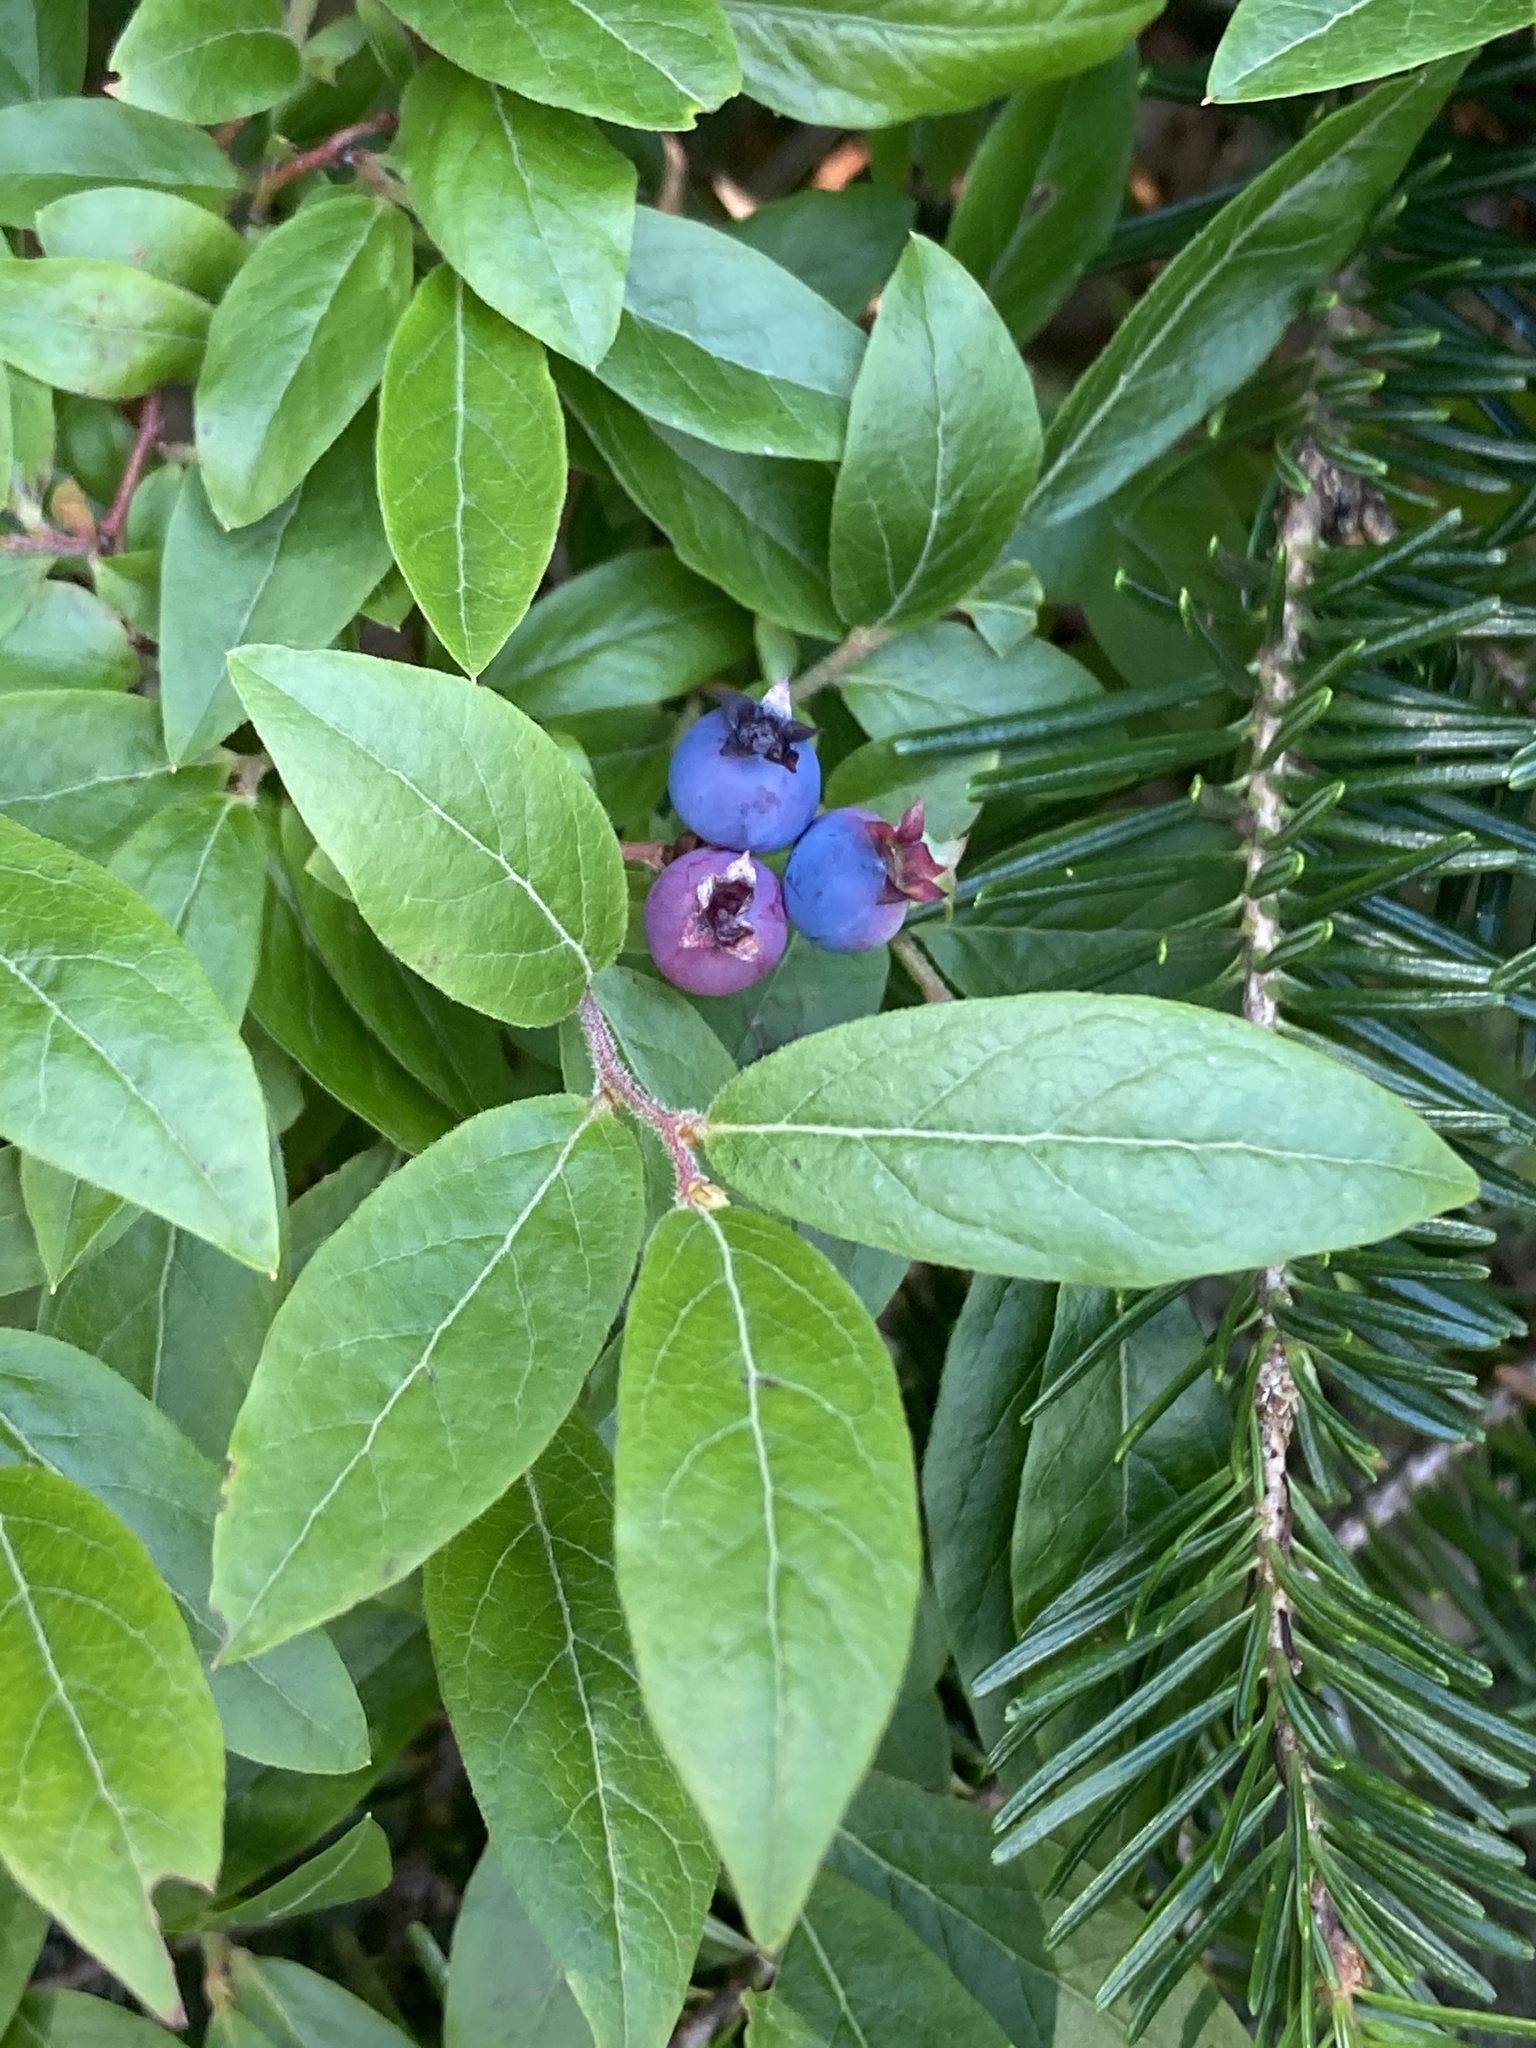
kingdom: Plantae
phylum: Tracheophyta
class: Magnoliopsida
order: Ericales
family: Ericaceae
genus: Vaccinium
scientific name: Vaccinium myrtilloides
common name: Canada blueberry
